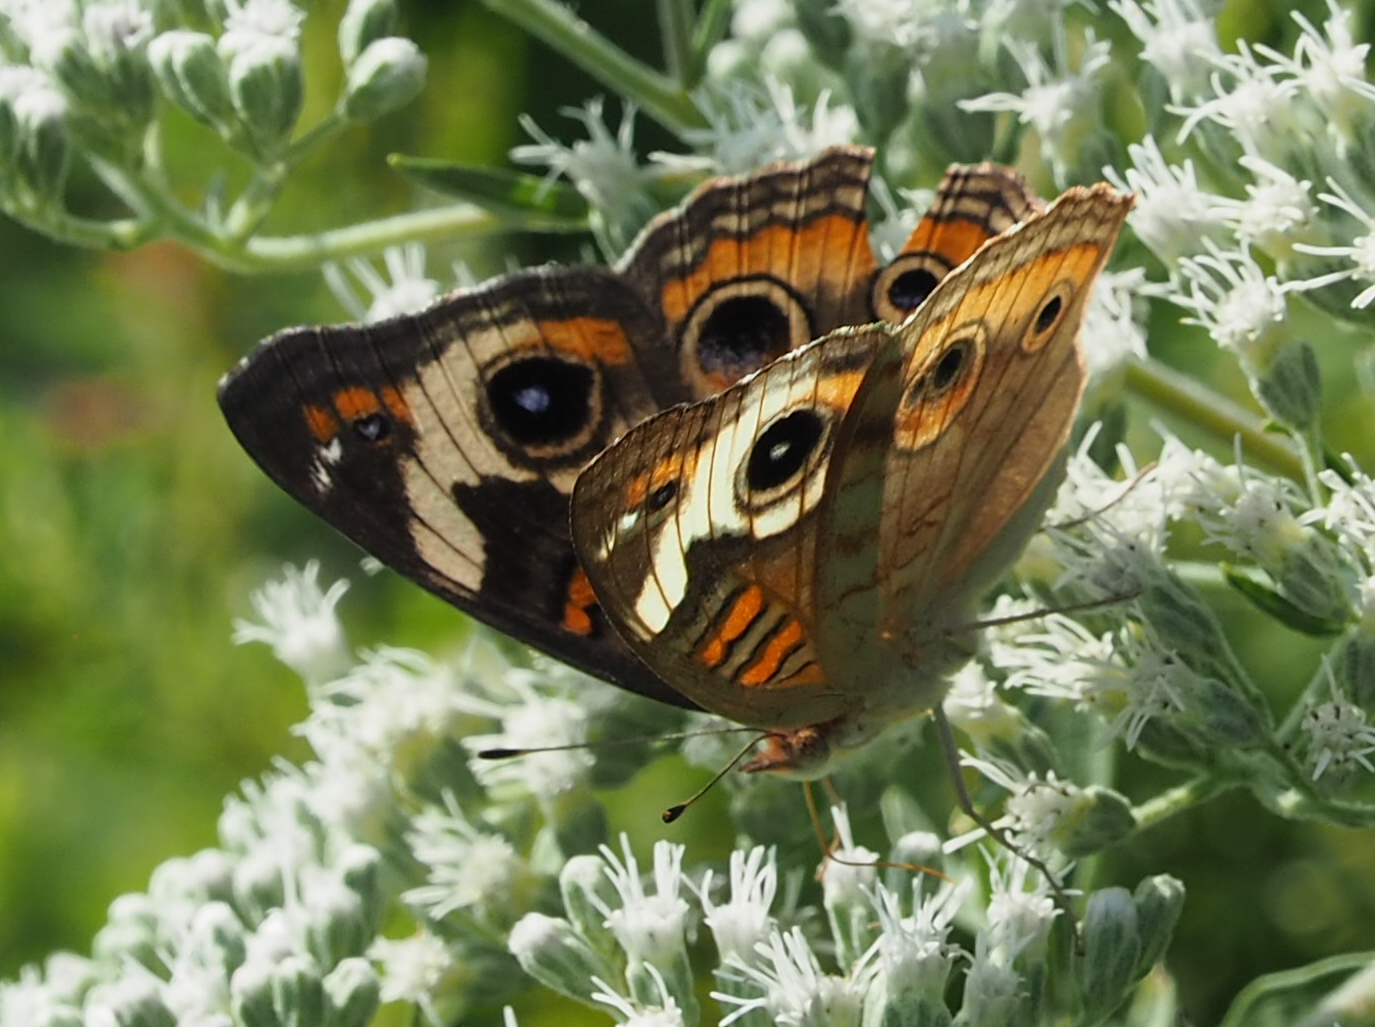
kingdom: Animalia
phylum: Arthropoda
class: Insecta
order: Lepidoptera
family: Nymphalidae
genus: Junonia
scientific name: Junonia coenia
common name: Common buckeye
